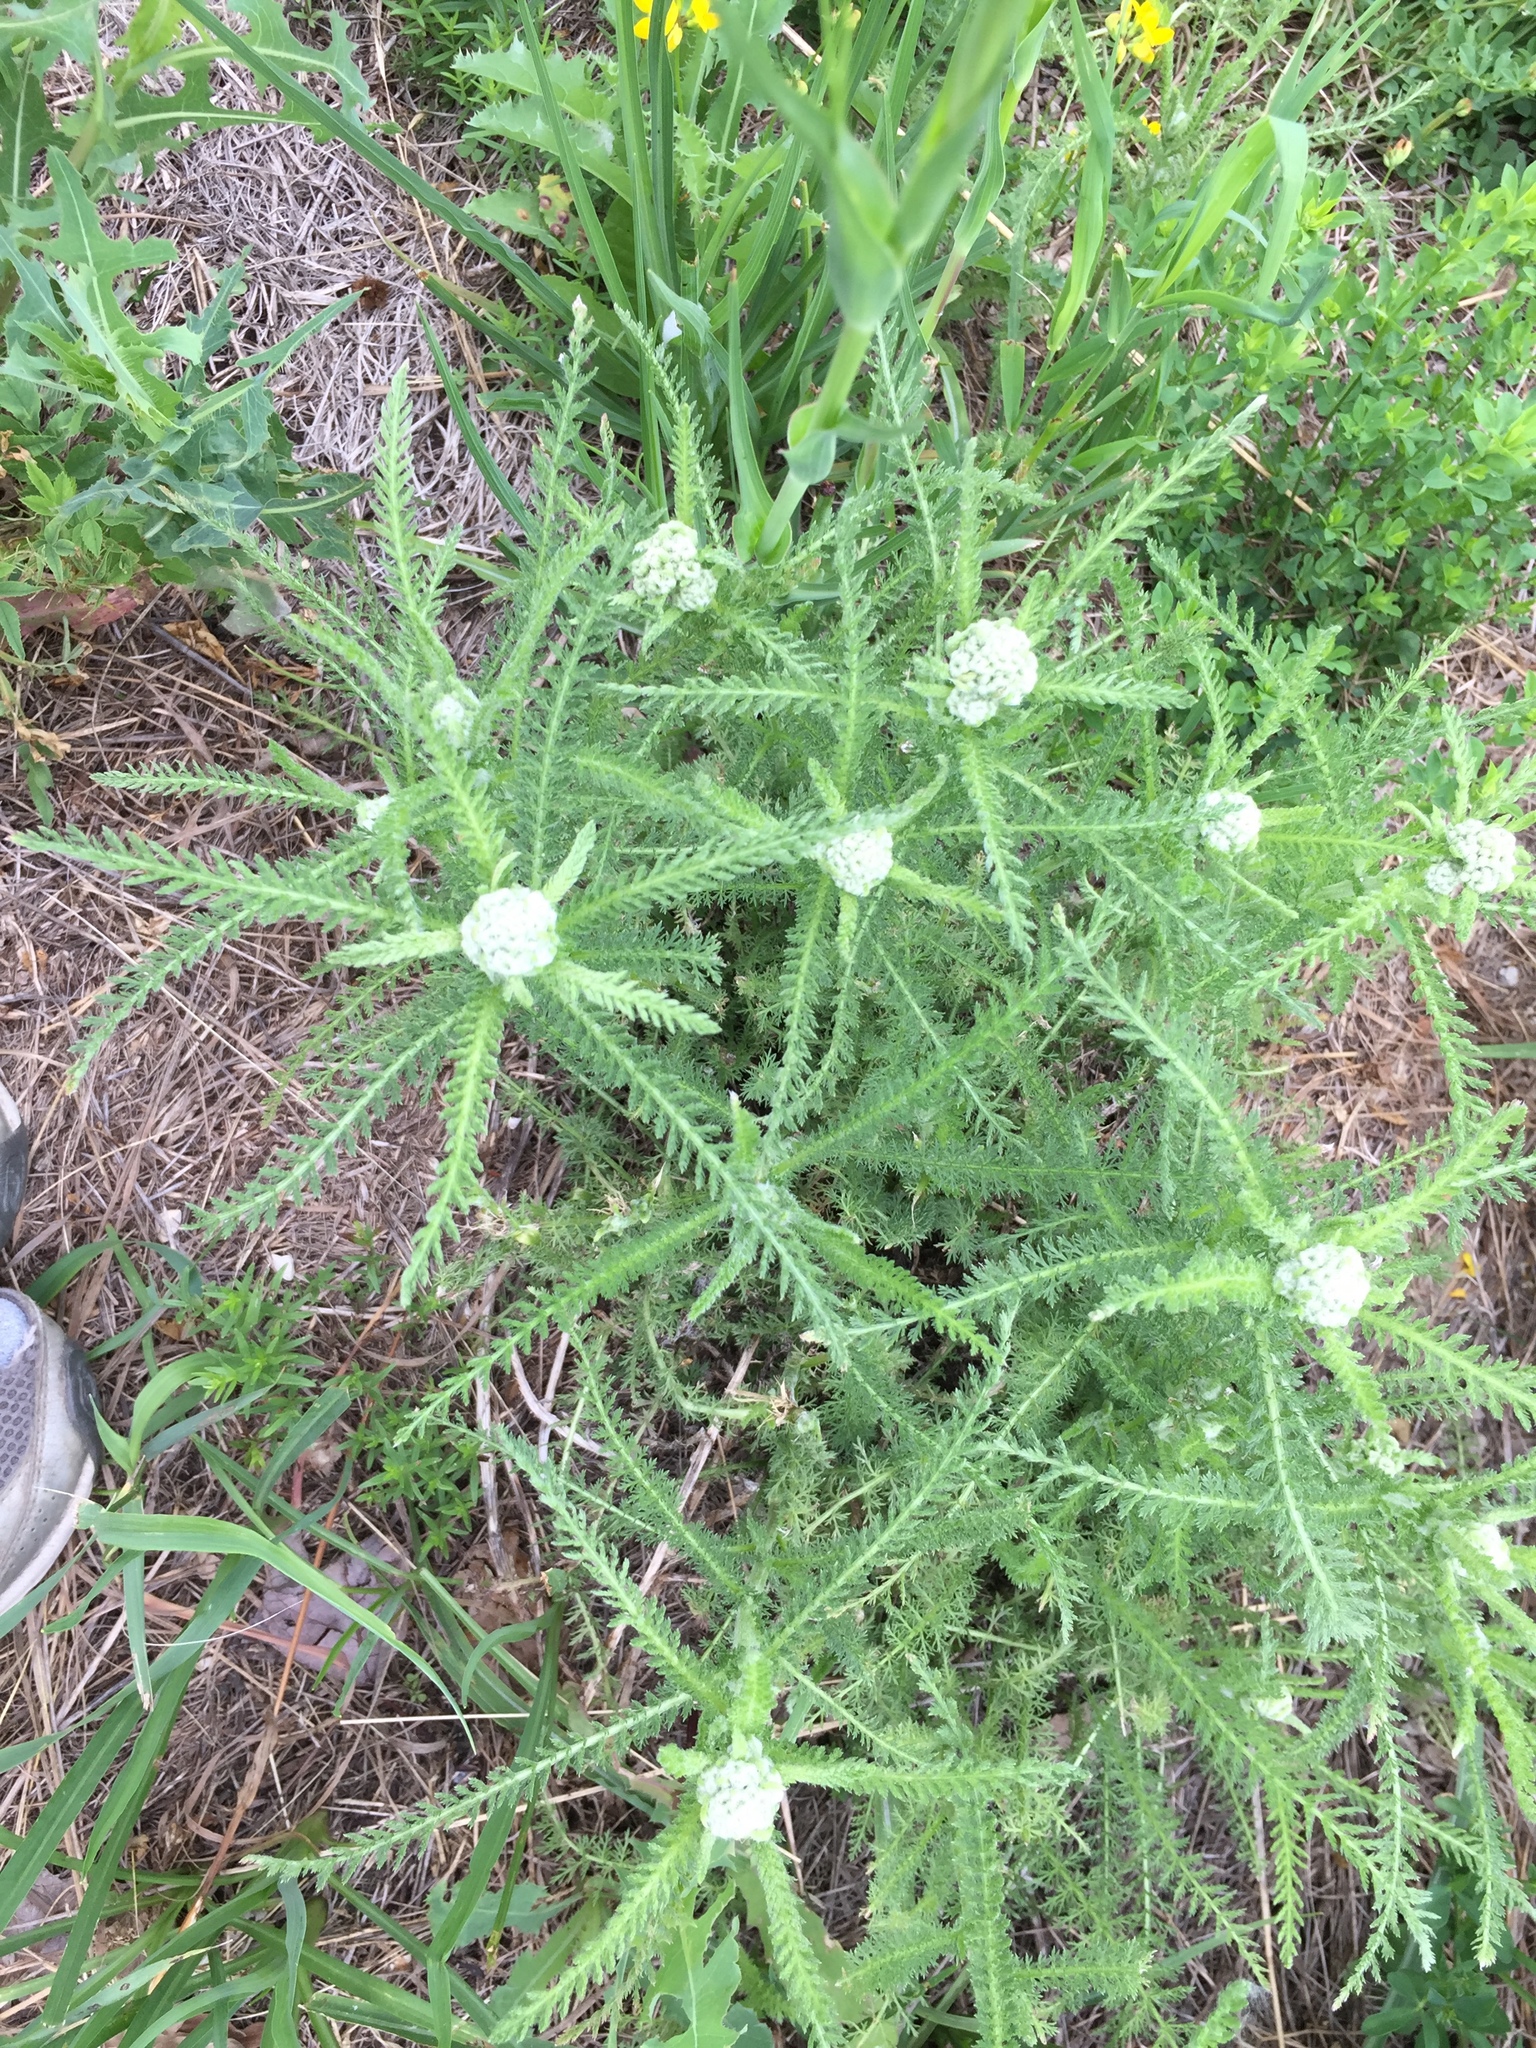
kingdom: Plantae
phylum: Tracheophyta
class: Magnoliopsida
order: Asterales
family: Asteraceae
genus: Achillea
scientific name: Achillea millefolium
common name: Yarrow
